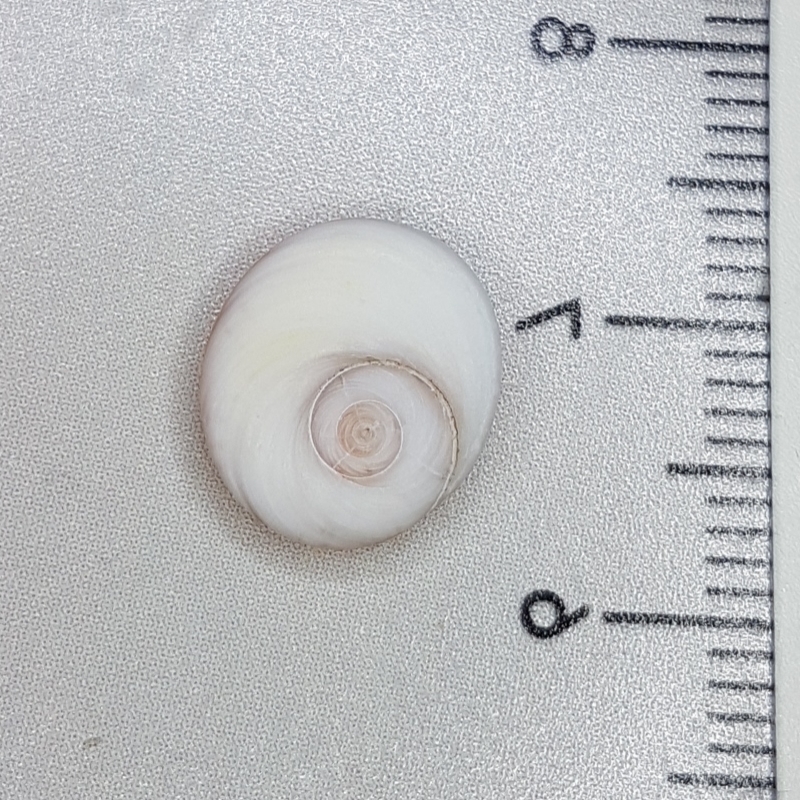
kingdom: Animalia
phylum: Mollusca
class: Gastropoda
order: Trochida
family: Turbinidae
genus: Bolma
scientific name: Bolma rugosa
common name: Rough star shell
